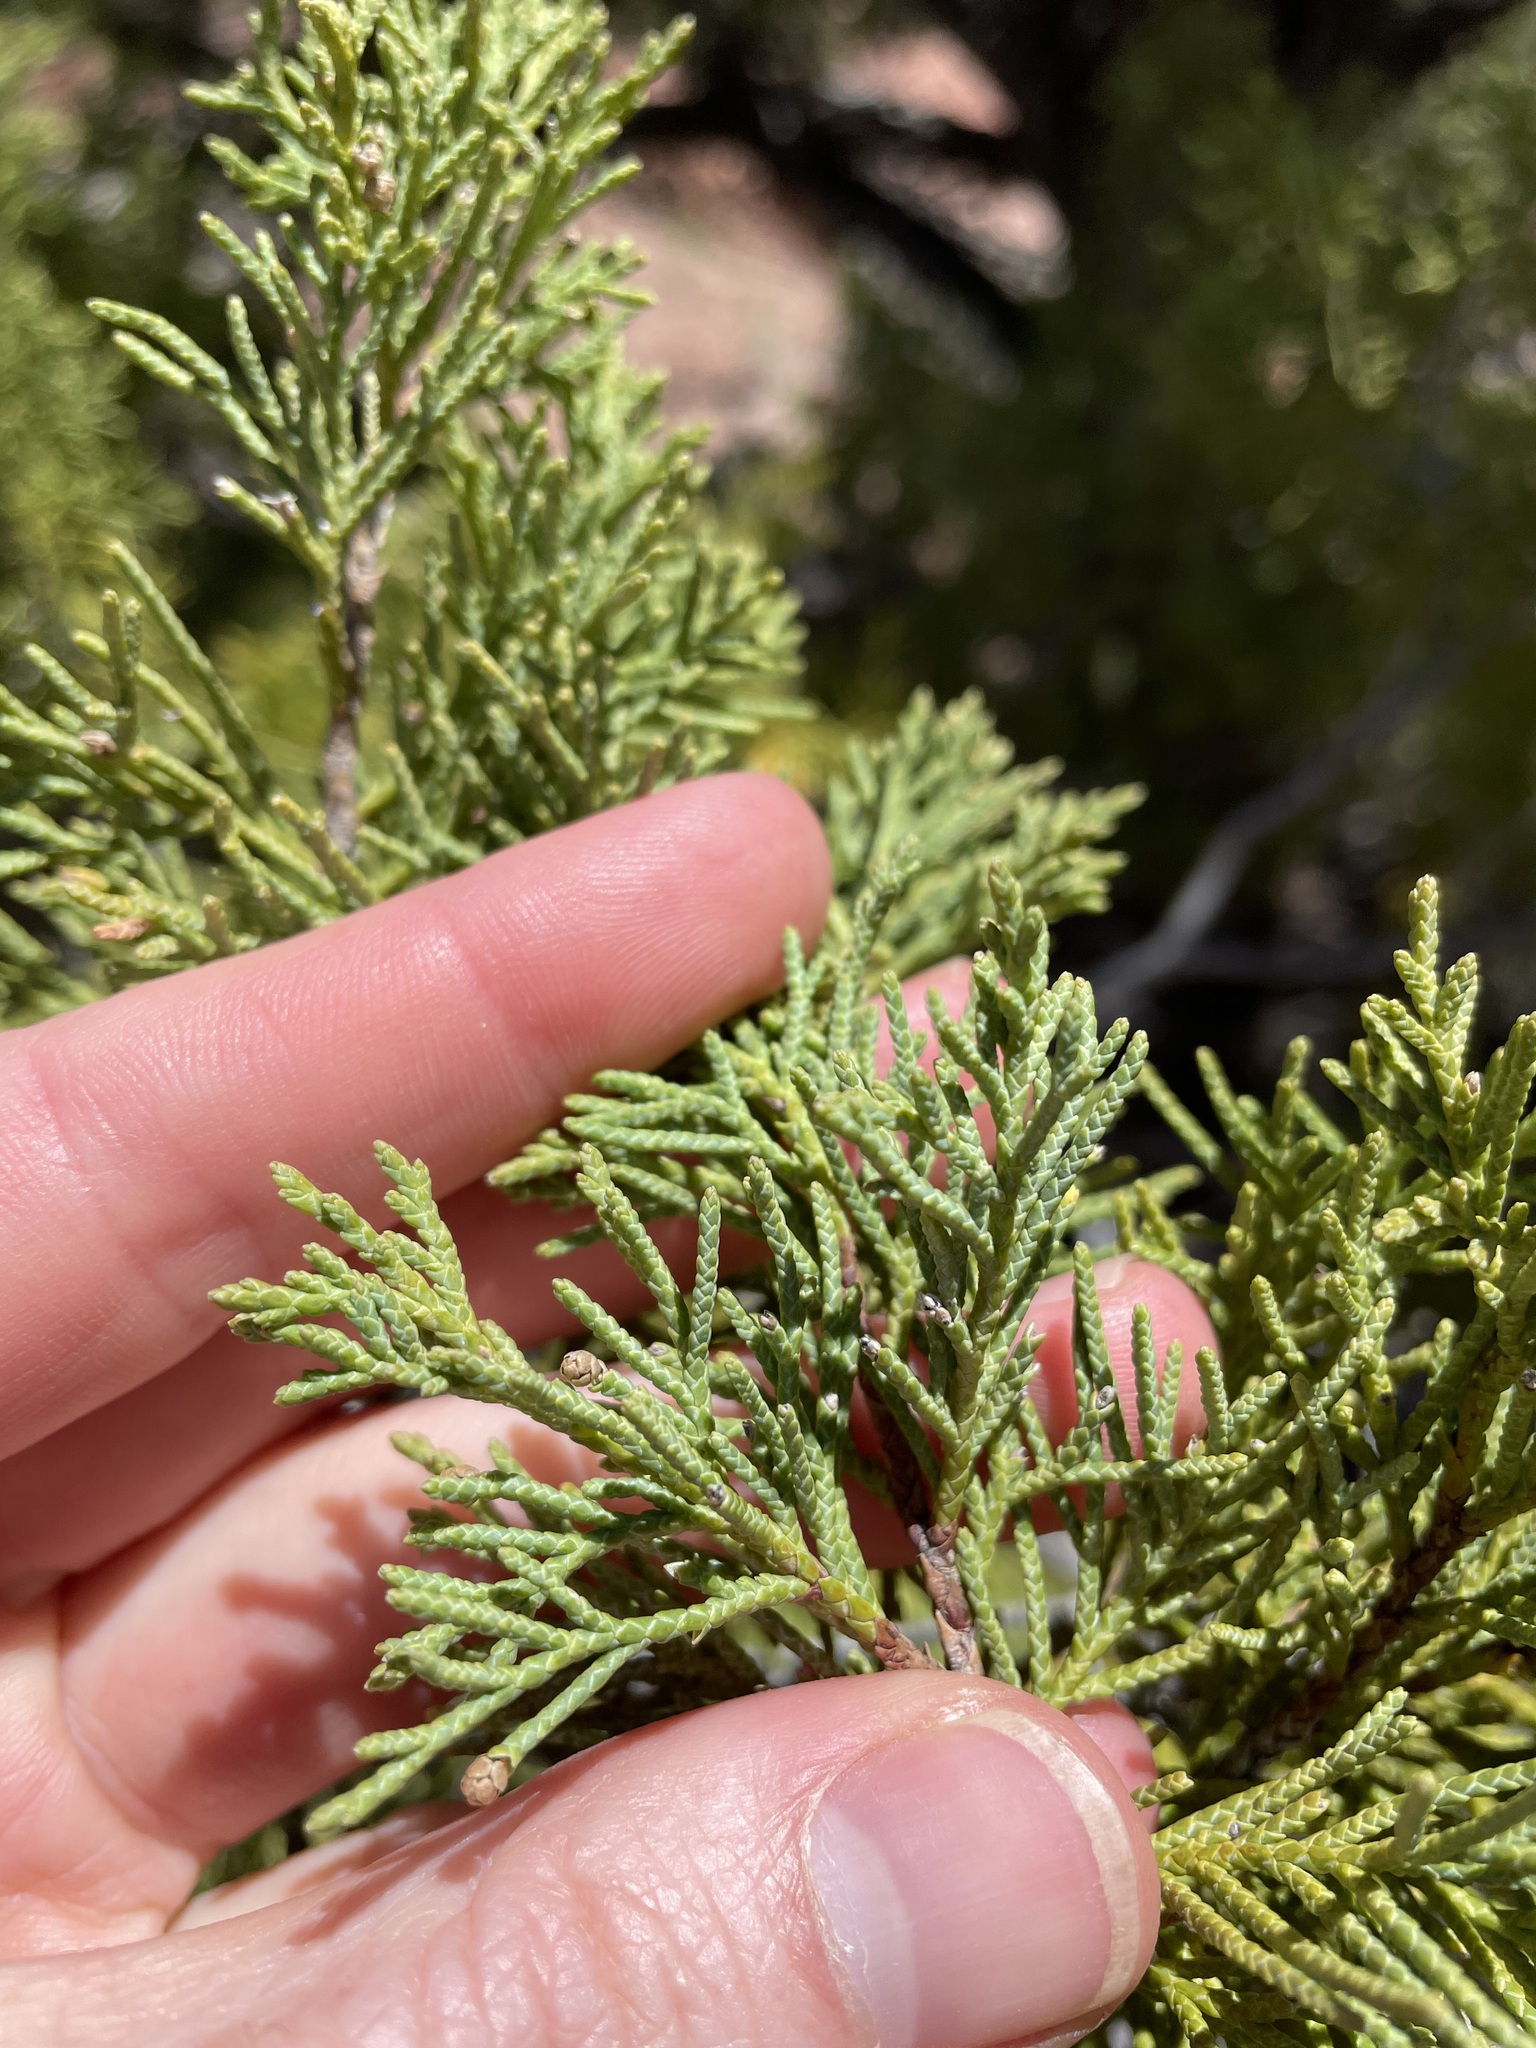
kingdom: Plantae
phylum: Tracheophyta
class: Pinopsida
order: Pinales
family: Cupressaceae
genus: Juniperus
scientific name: Juniperus monosperma
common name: One-seed juniper
